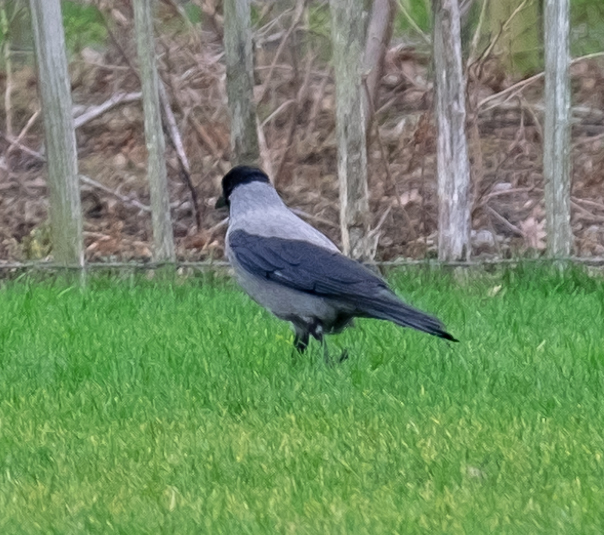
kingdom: Animalia
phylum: Chordata
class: Aves
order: Passeriformes
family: Corvidae
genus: Corvus
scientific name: Corvus cornix
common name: Hooded crow
